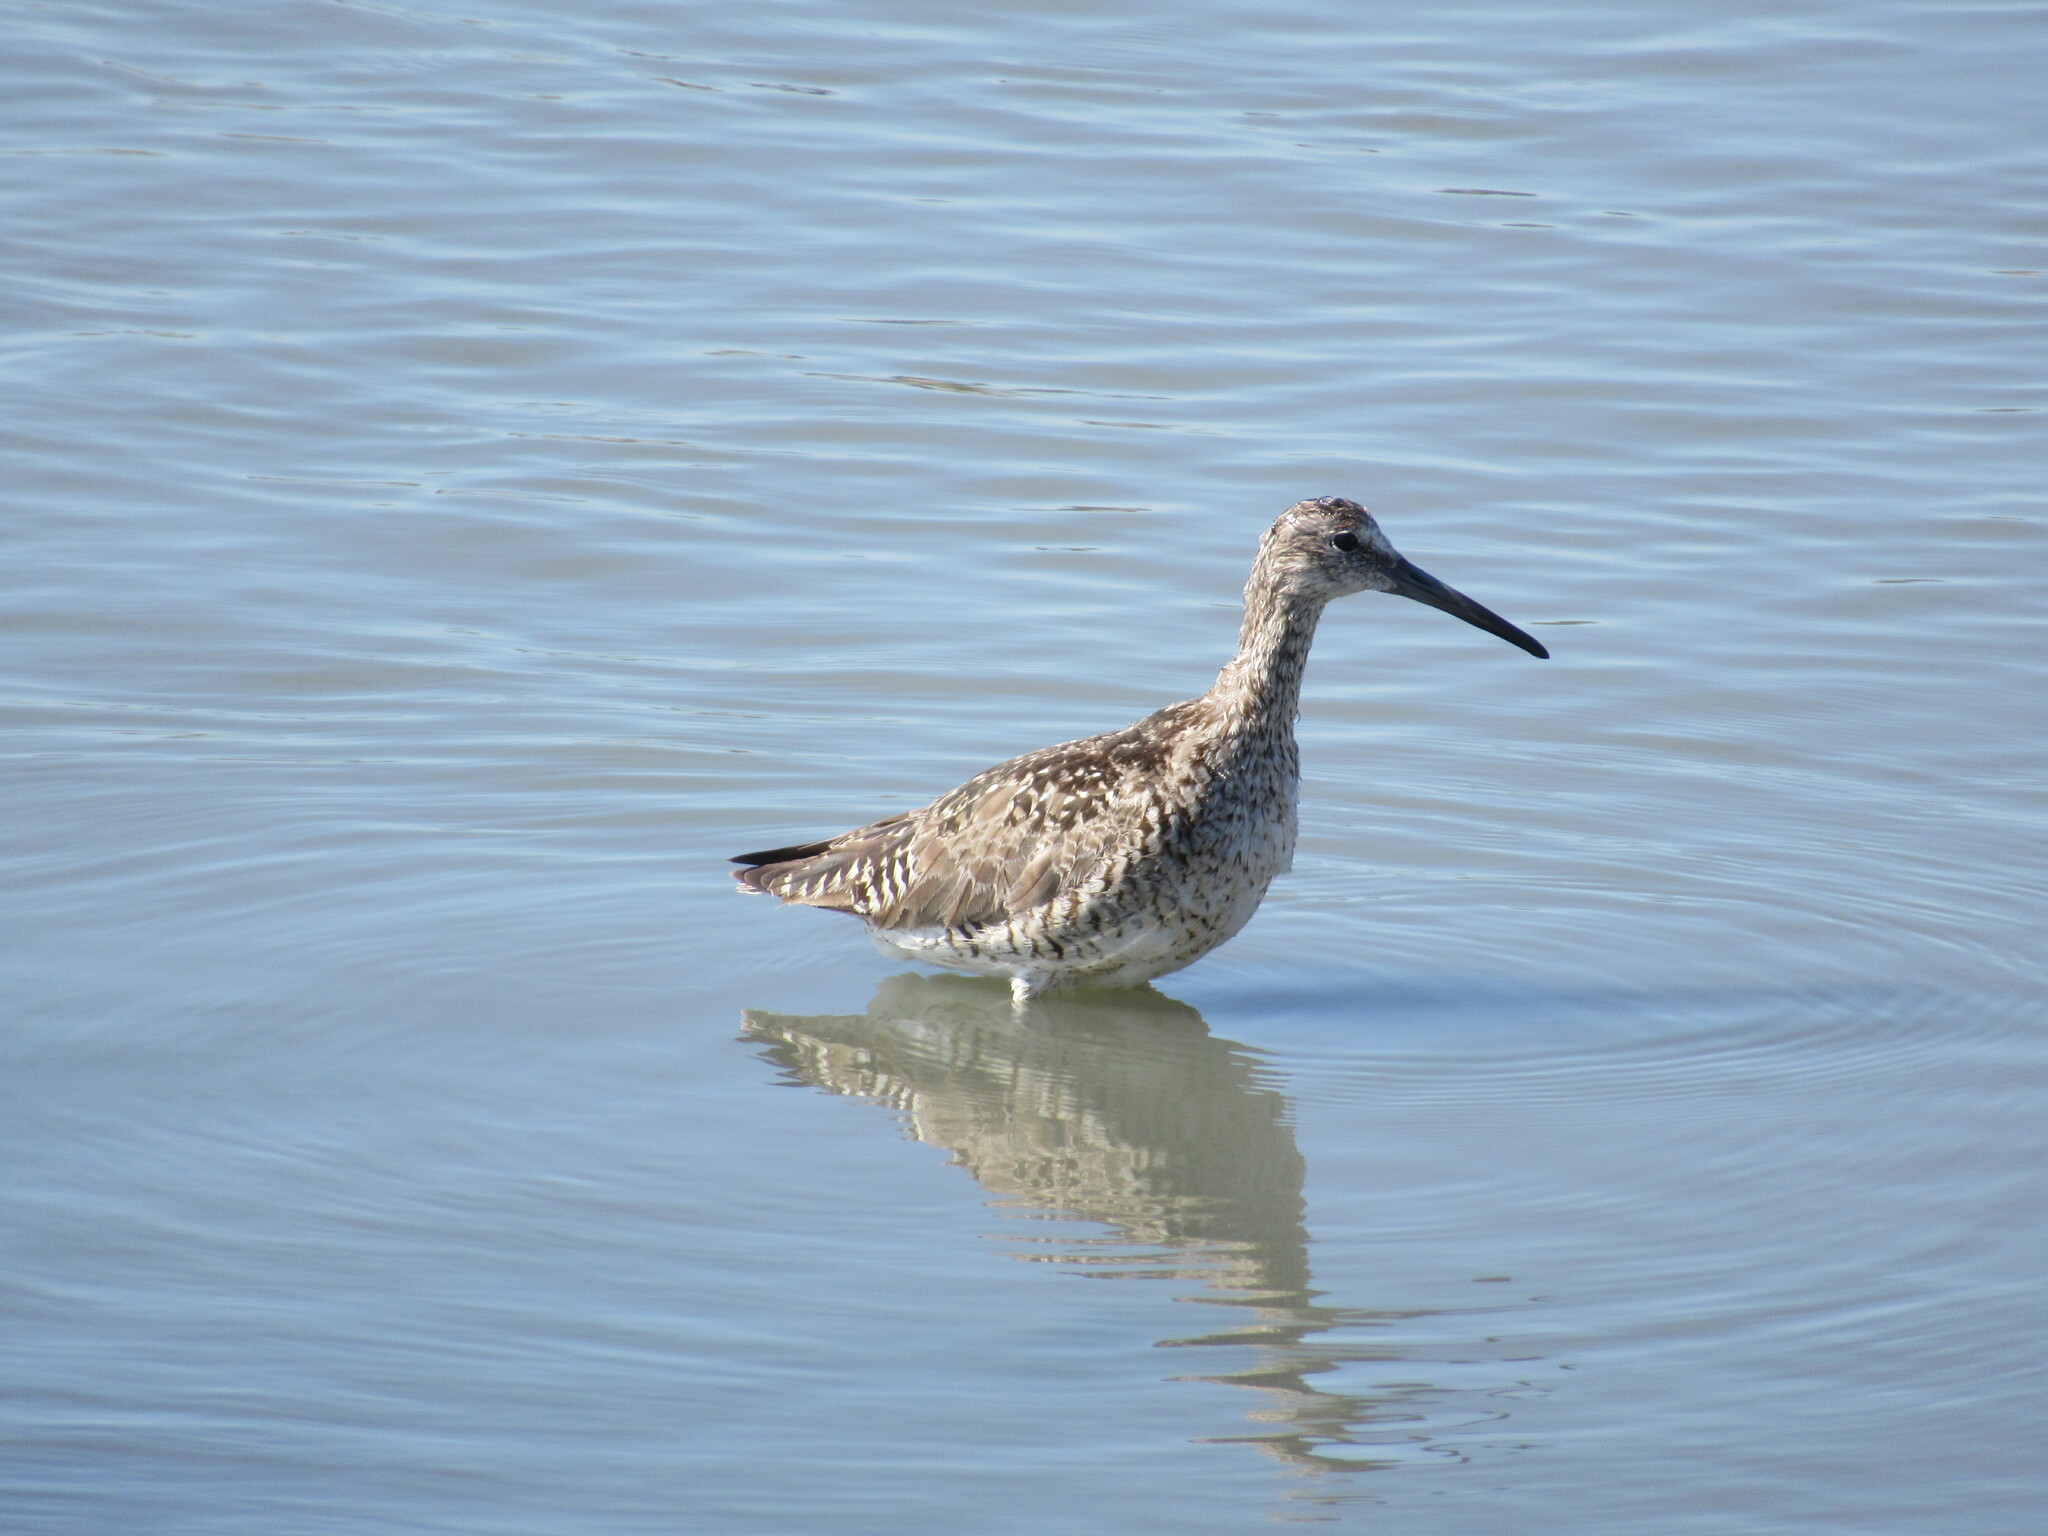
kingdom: Animalia
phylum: Chordata
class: Aves
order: Charadriiformes
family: Scolopacidae
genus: Tringa
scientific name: Tringa semipalmata
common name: Willet
